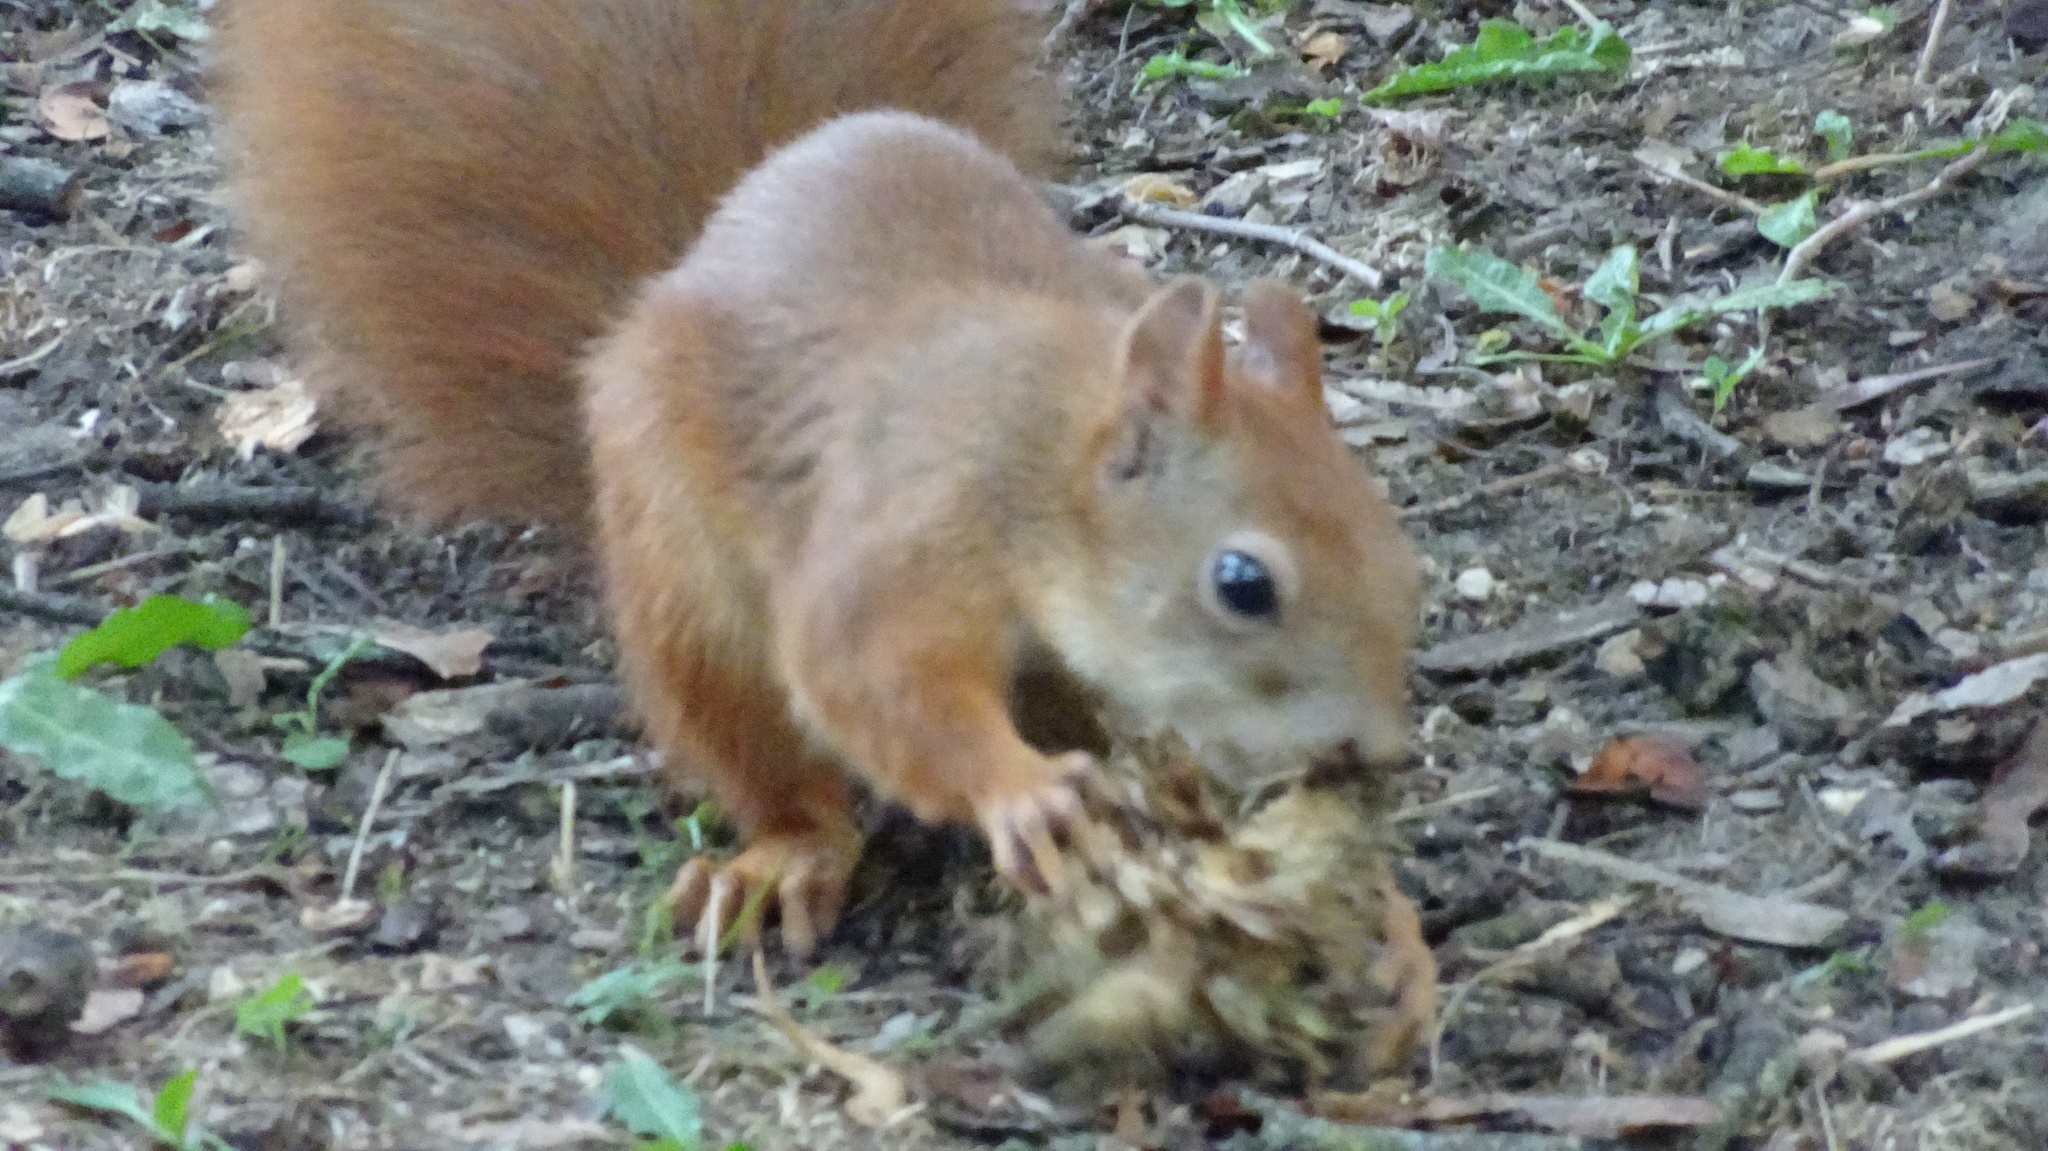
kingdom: Animalia
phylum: Chordata
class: Mammalia
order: Rodentia
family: Sciuridae
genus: Sciurus
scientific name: Sciurus vulgaris
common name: Eurasian red squirrel
